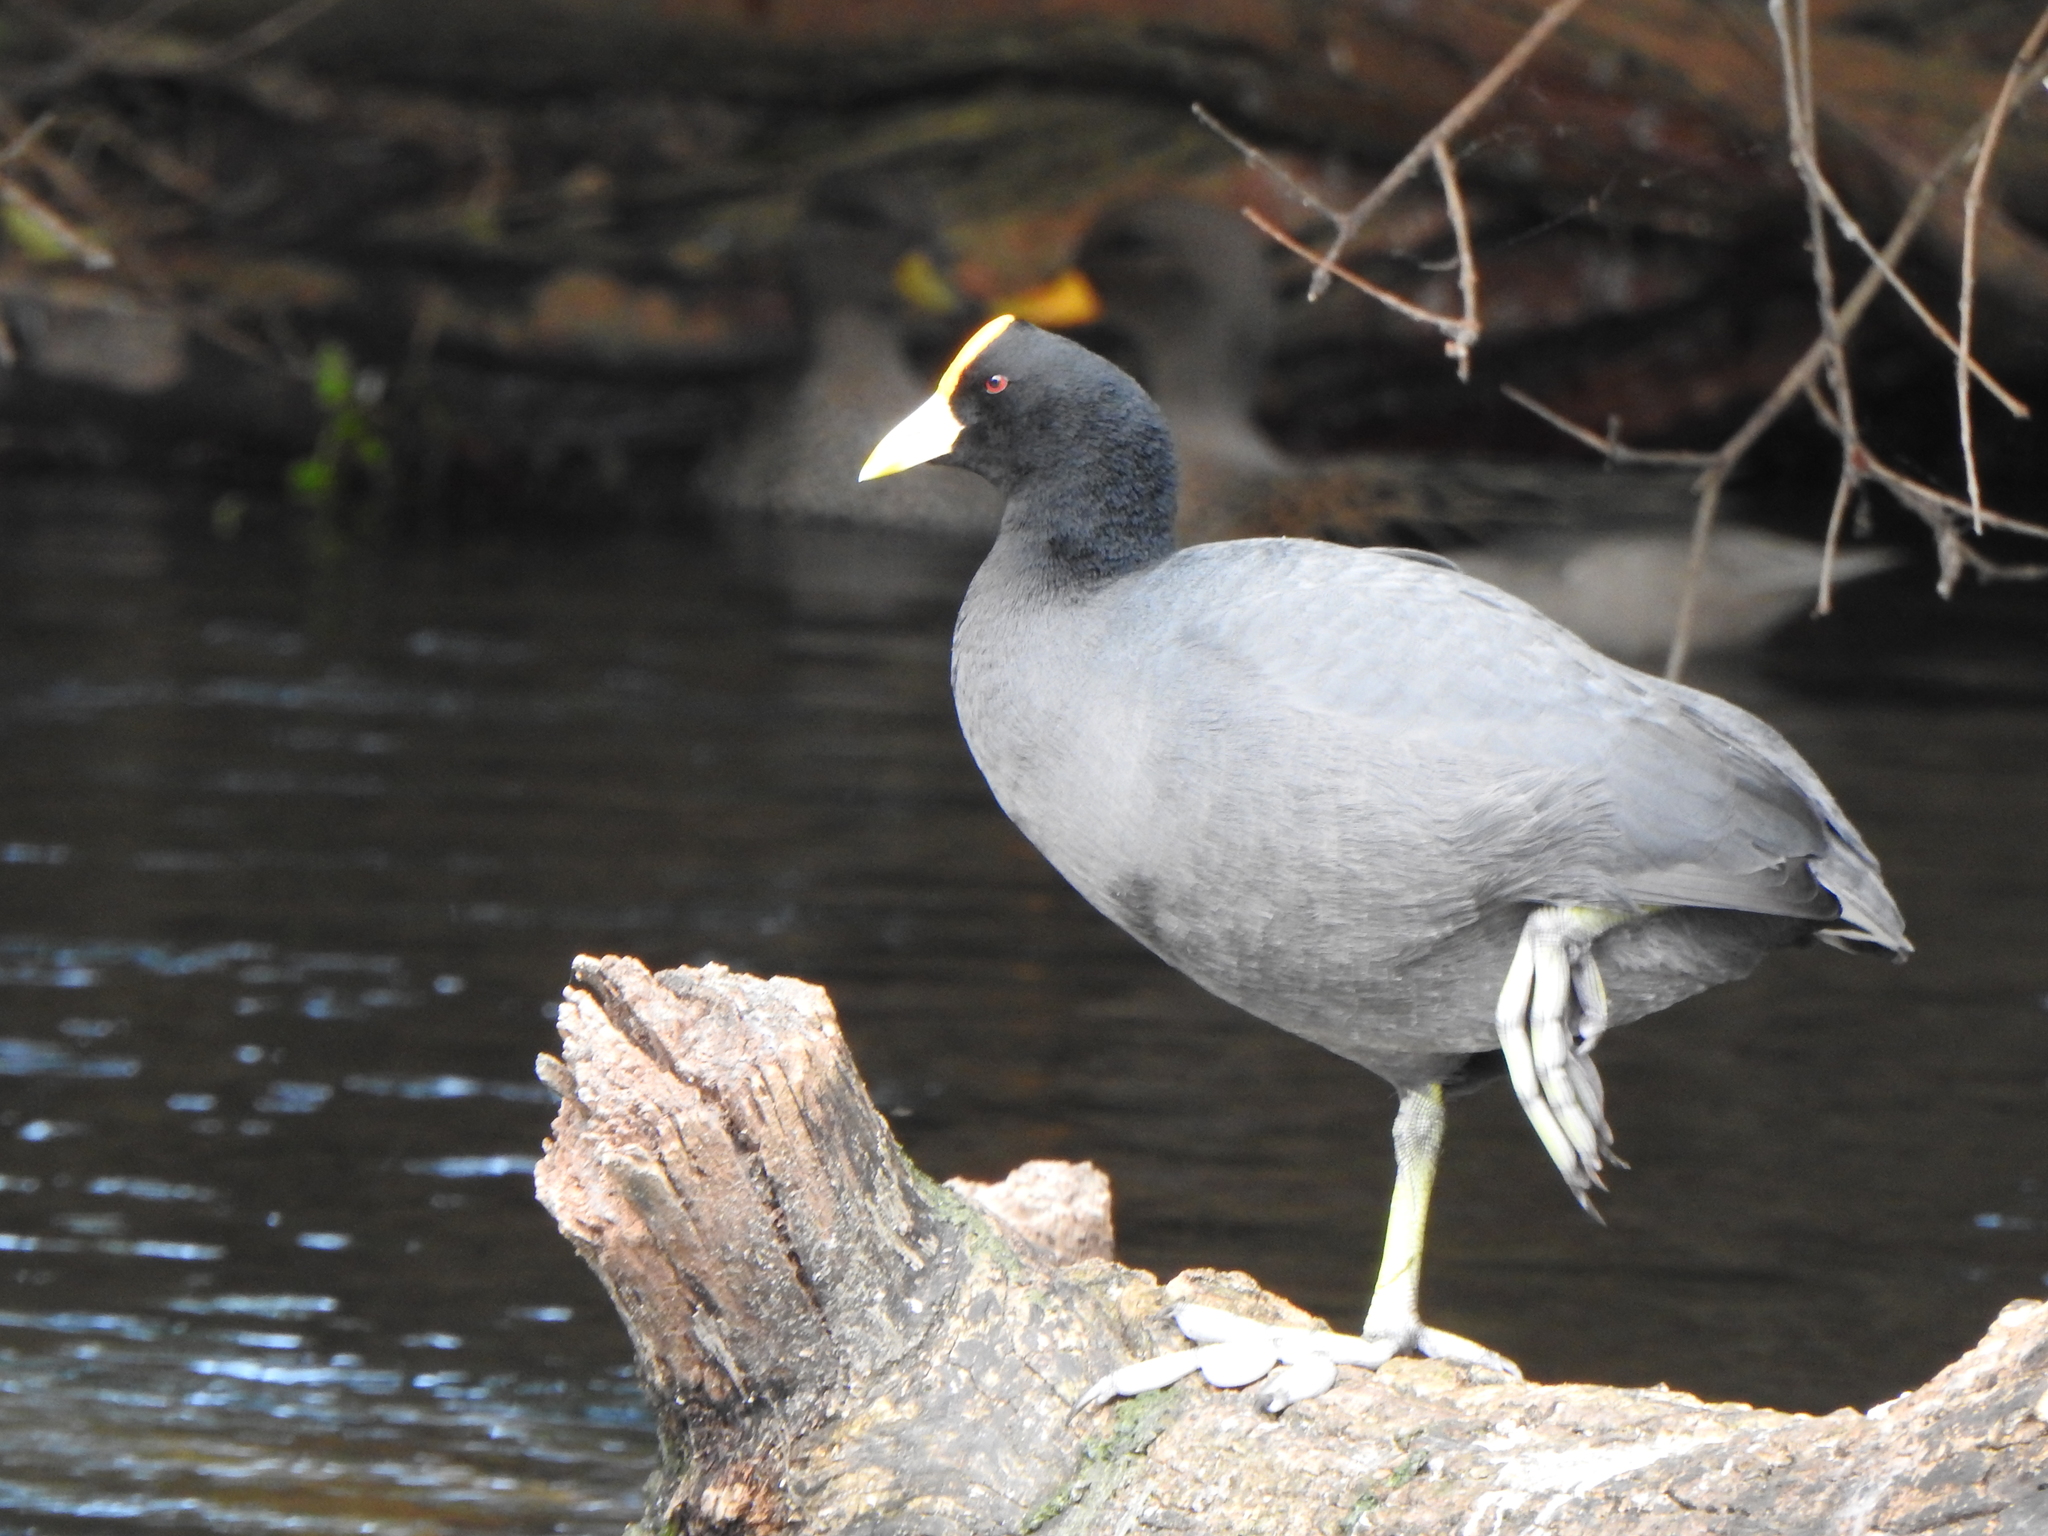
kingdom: Animalia
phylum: Chordata
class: Aves
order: Gruiformes
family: Rallidae
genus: Fulica
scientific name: Fulica leucoptera
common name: White-winged coot
